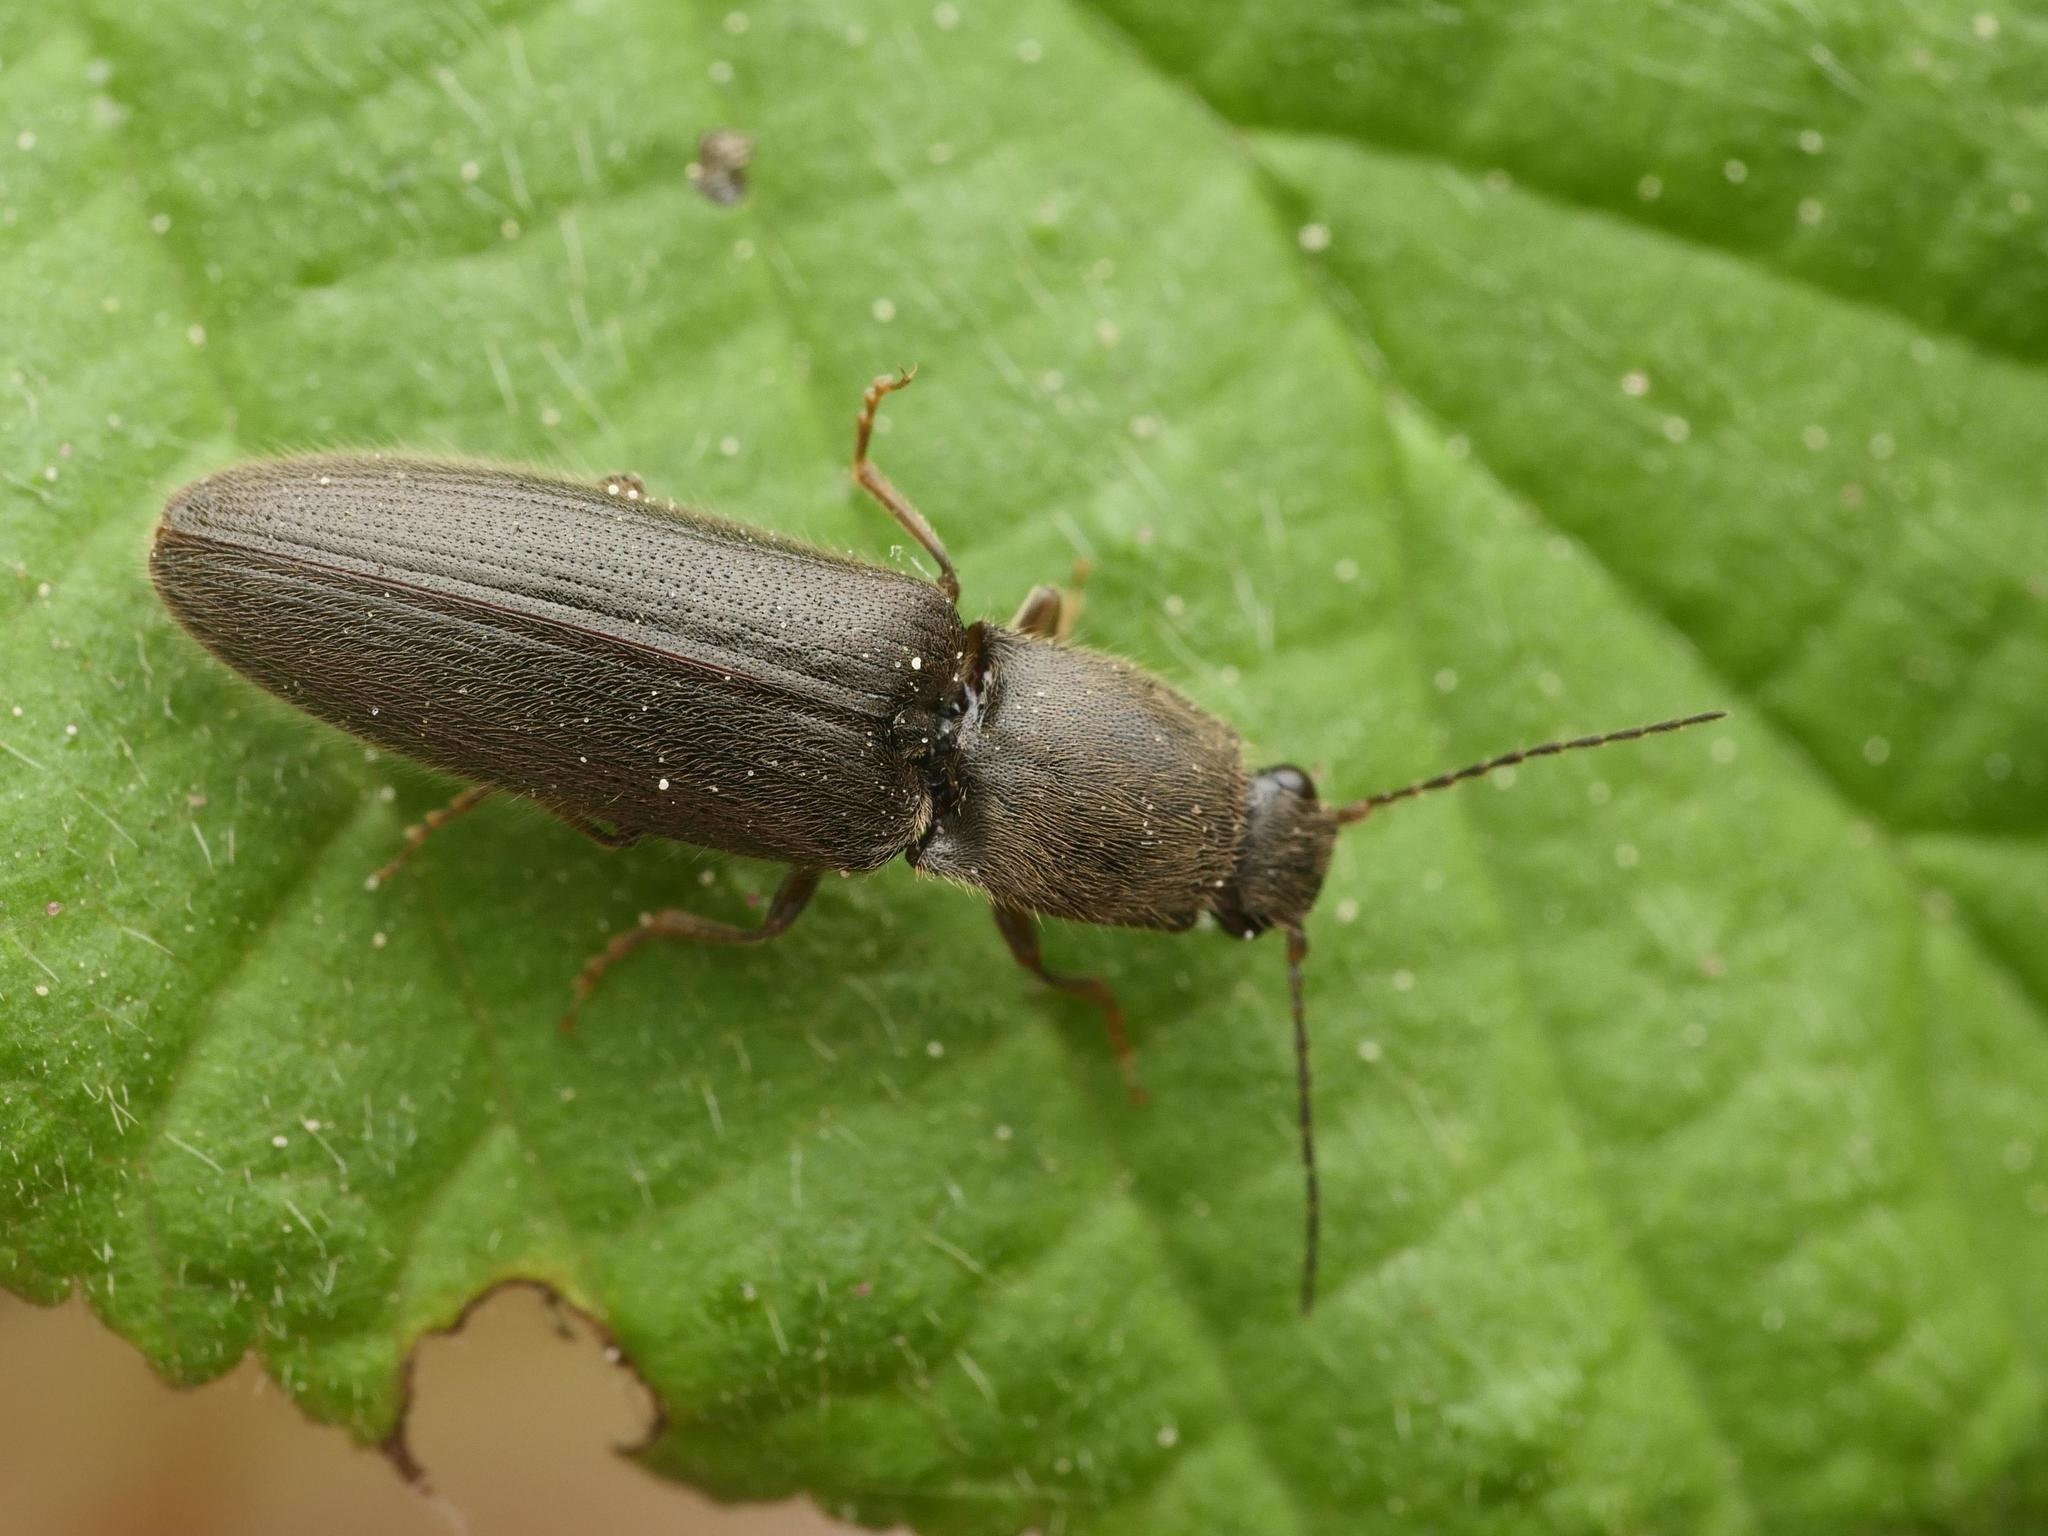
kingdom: Animalia
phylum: Arthropoda
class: Insecta
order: Coleoptera
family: Elateridae
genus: Athous
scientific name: Athous haemorrhoidalis
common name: Red-brown click beetle
